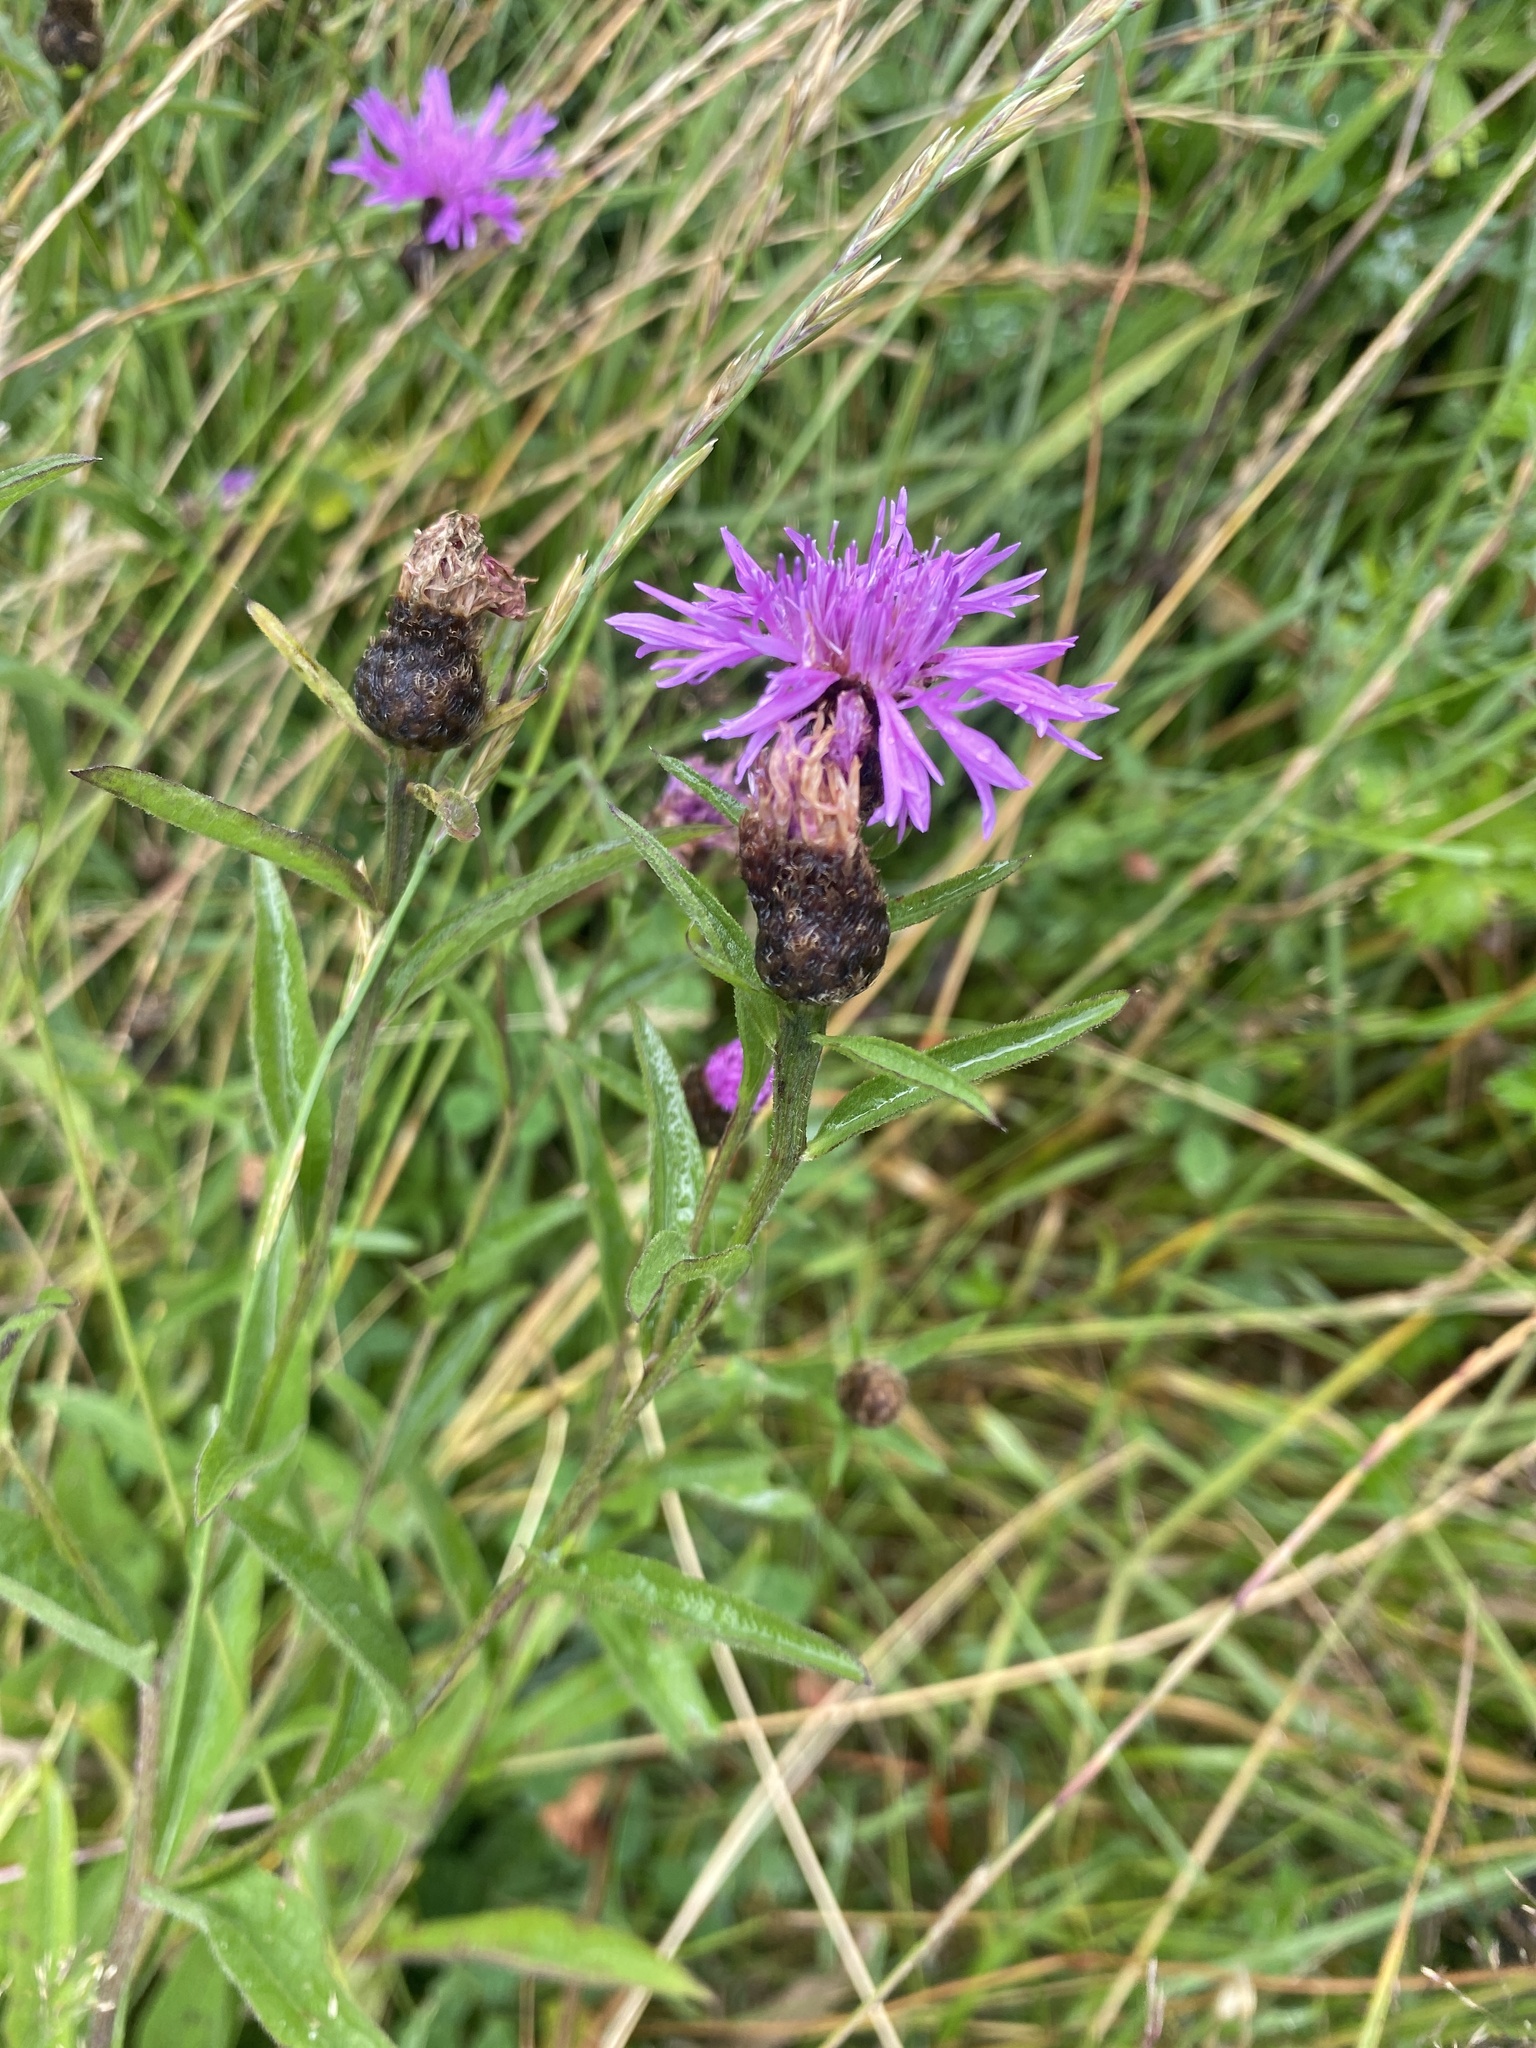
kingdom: Plantae
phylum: Tracheophyta
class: Magnoliopsida
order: Asterales
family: Asteraceae
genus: Centaurea
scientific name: Centaurea nigra
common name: Lesser knapweed
